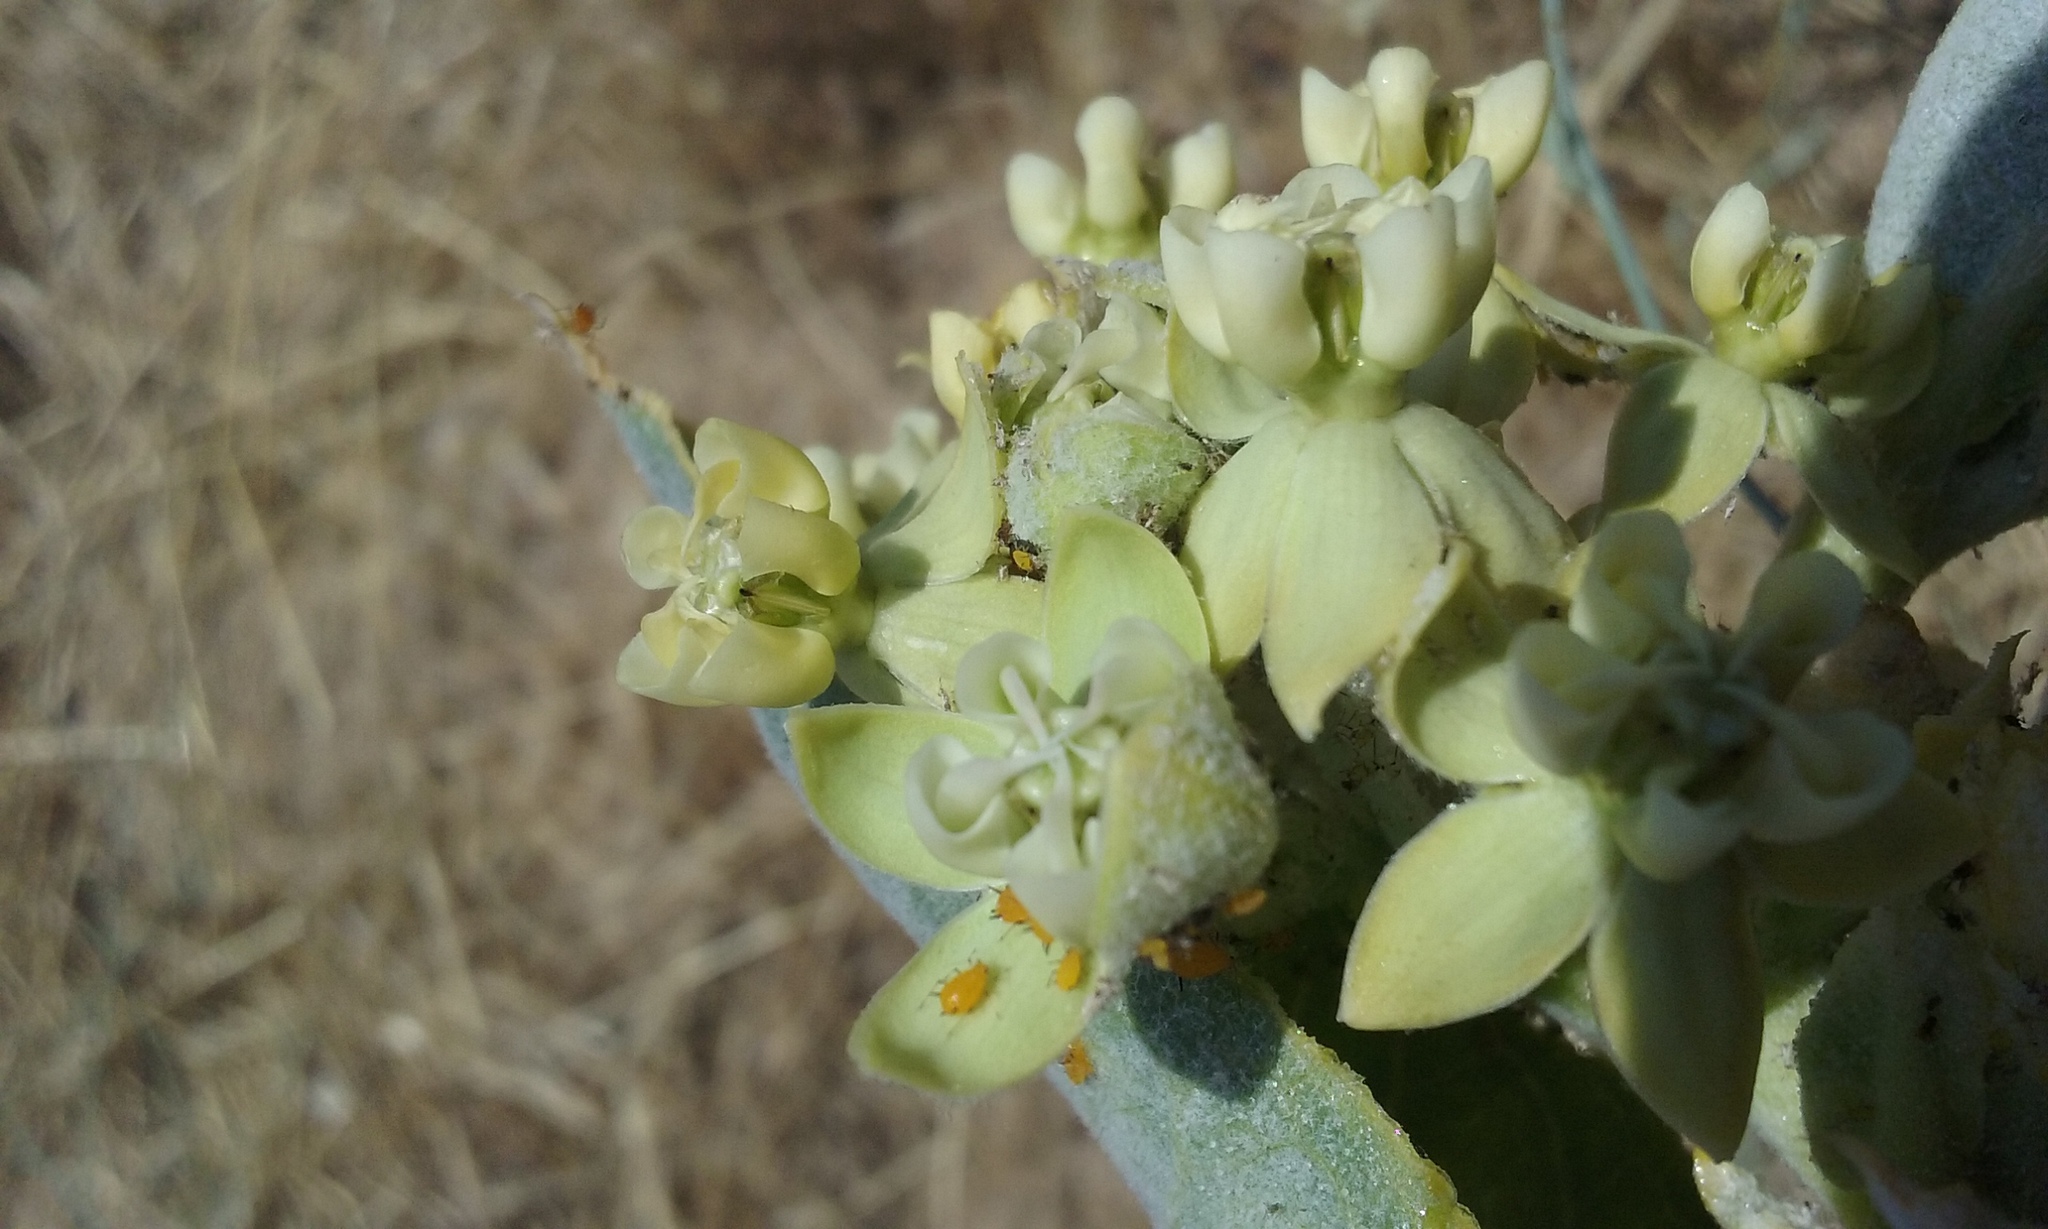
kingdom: Plantae
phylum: Tracheophyta
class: Magnoliopsida
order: Gentianales
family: Apocynaceae
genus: Asclepias
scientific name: Asclepias erosa
